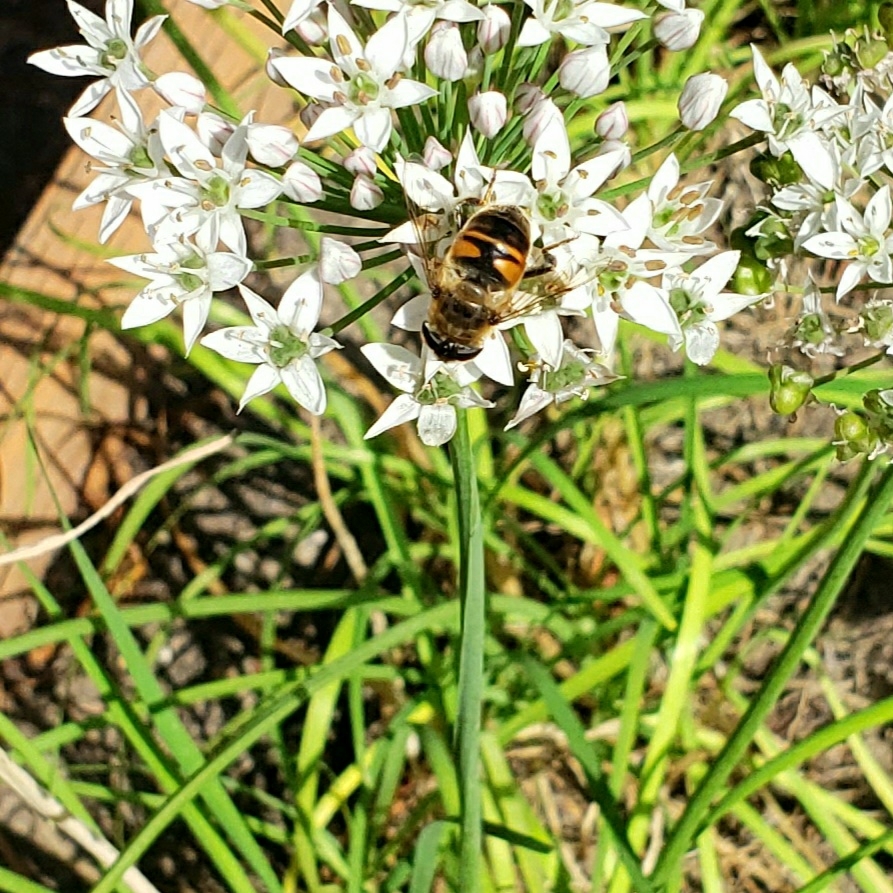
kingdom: Animalia
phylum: Arthropoda
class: Insecta
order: Diptera
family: Syrphidae
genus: Eristalis
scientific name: Eristalis tenax
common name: Drone fly
